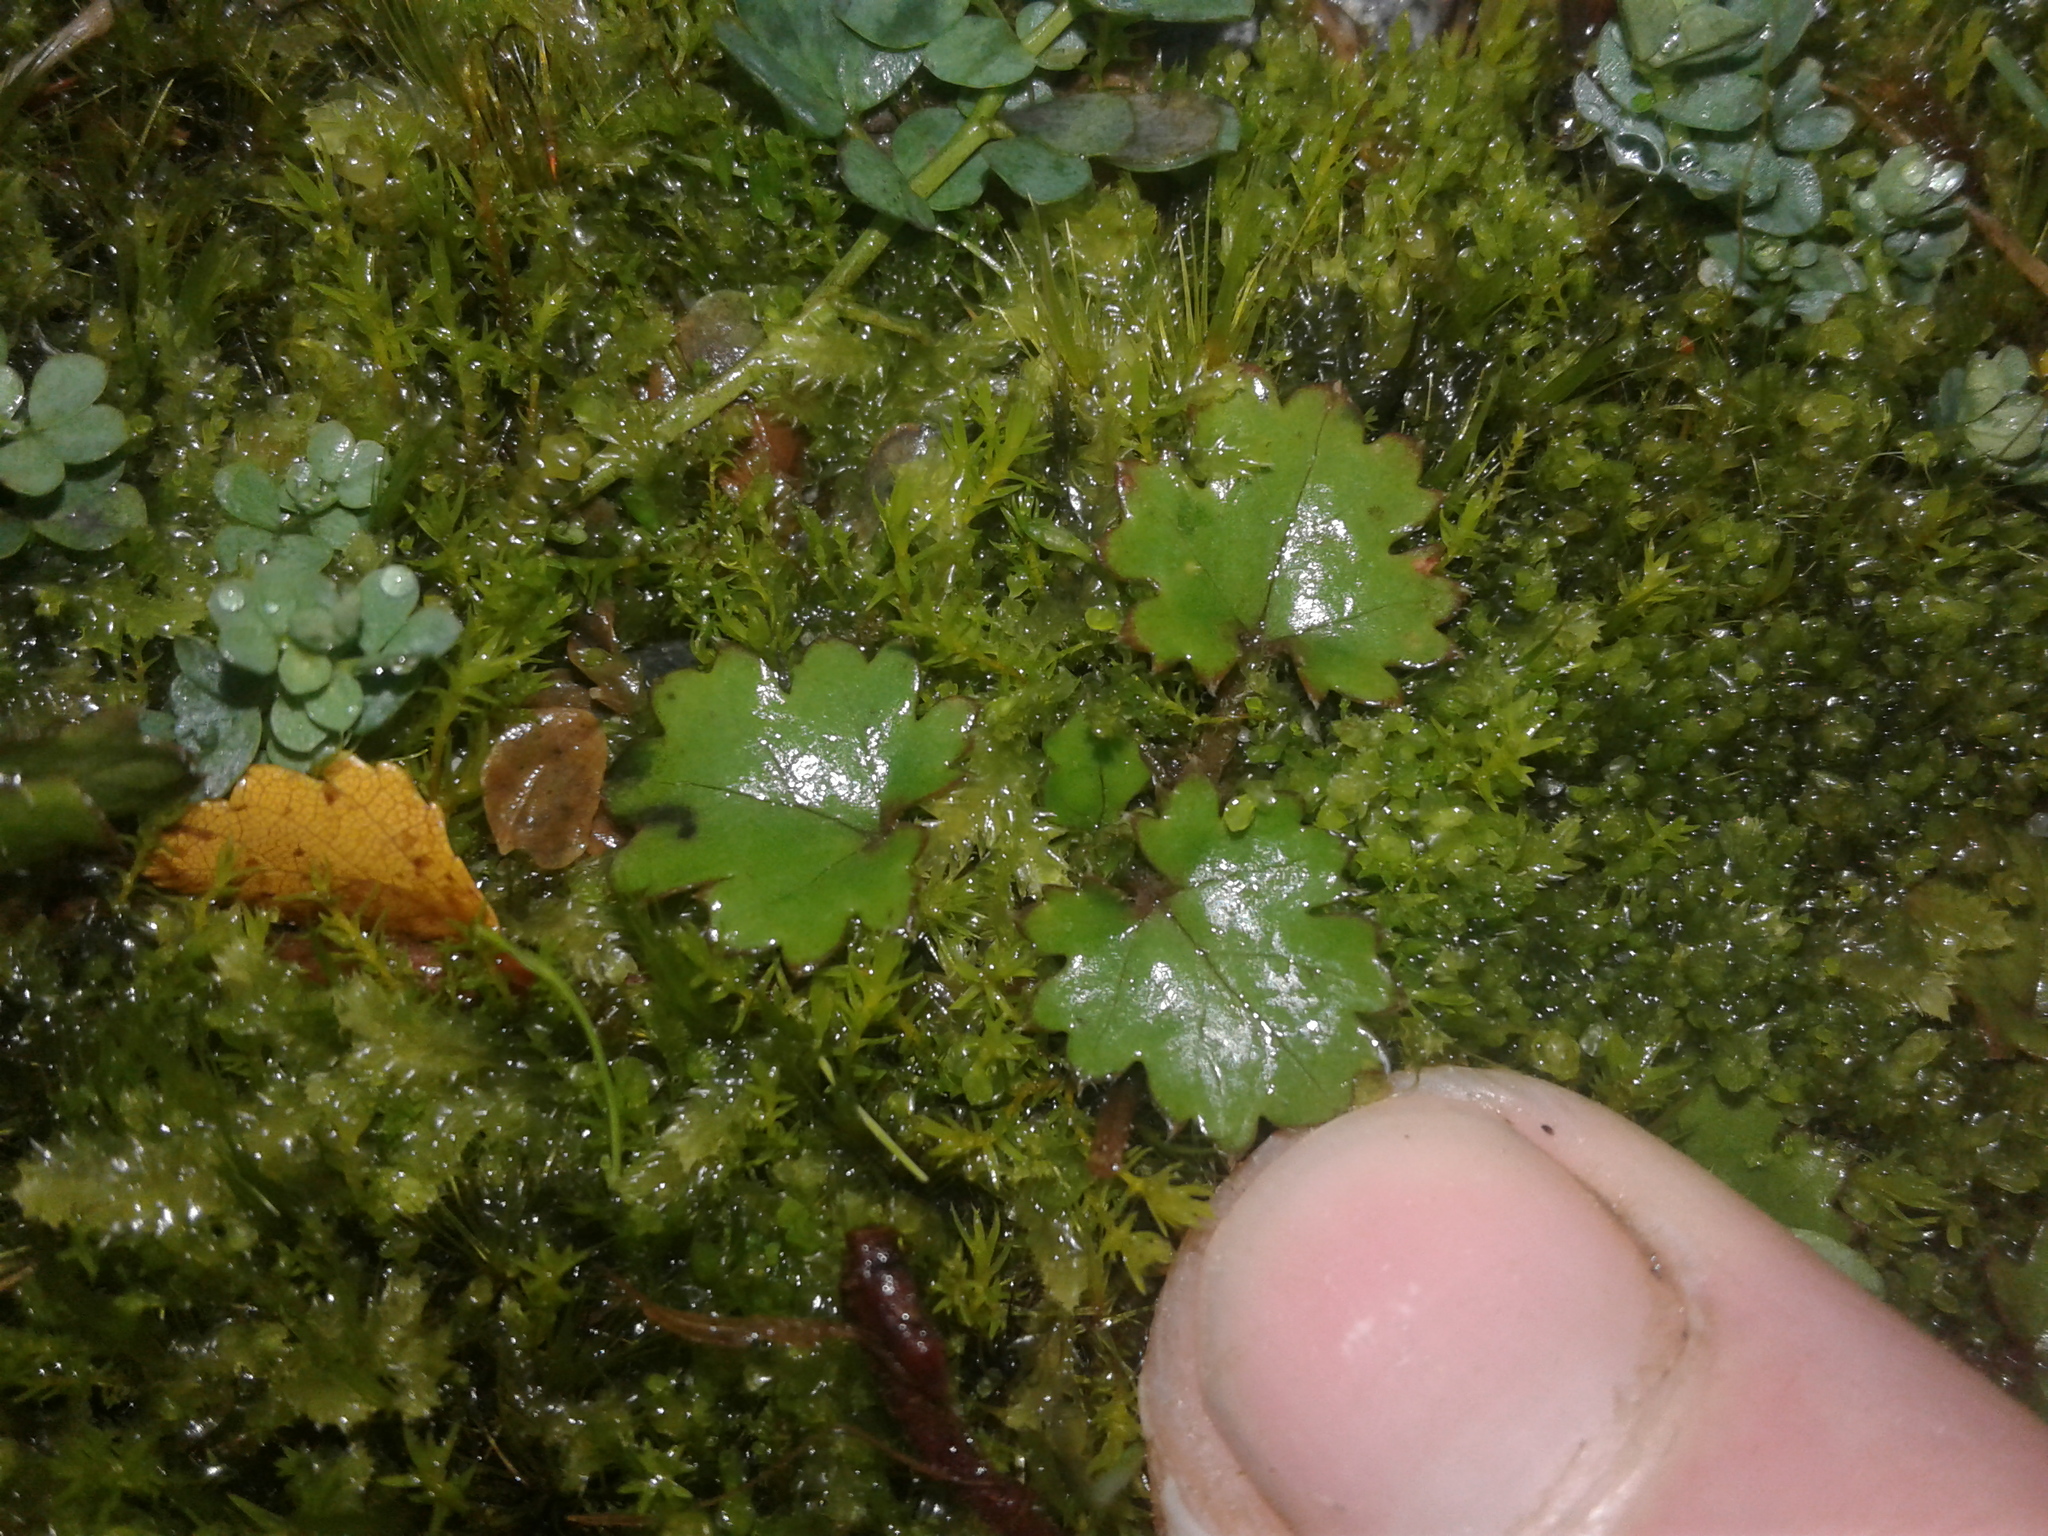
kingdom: Plantae
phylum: Tracheophyta
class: Magnoliopsida
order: Gunnerales
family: Gunneraceae
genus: Gunnera
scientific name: Gunnera monoica
